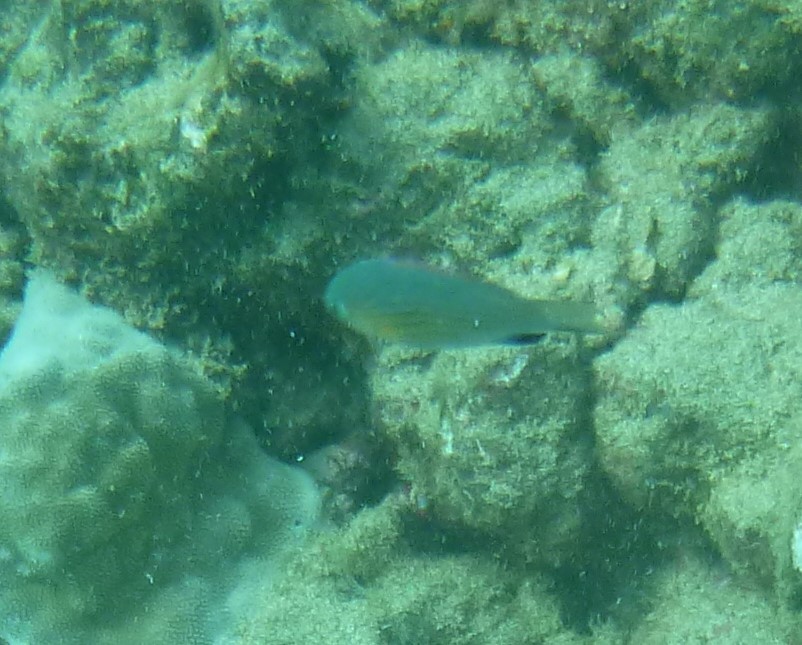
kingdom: Animalia
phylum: Chordata
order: Perciformes
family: Pomacentridae
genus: Chromis
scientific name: Chromis vanderbilti
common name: Vanderbilt's chromis
